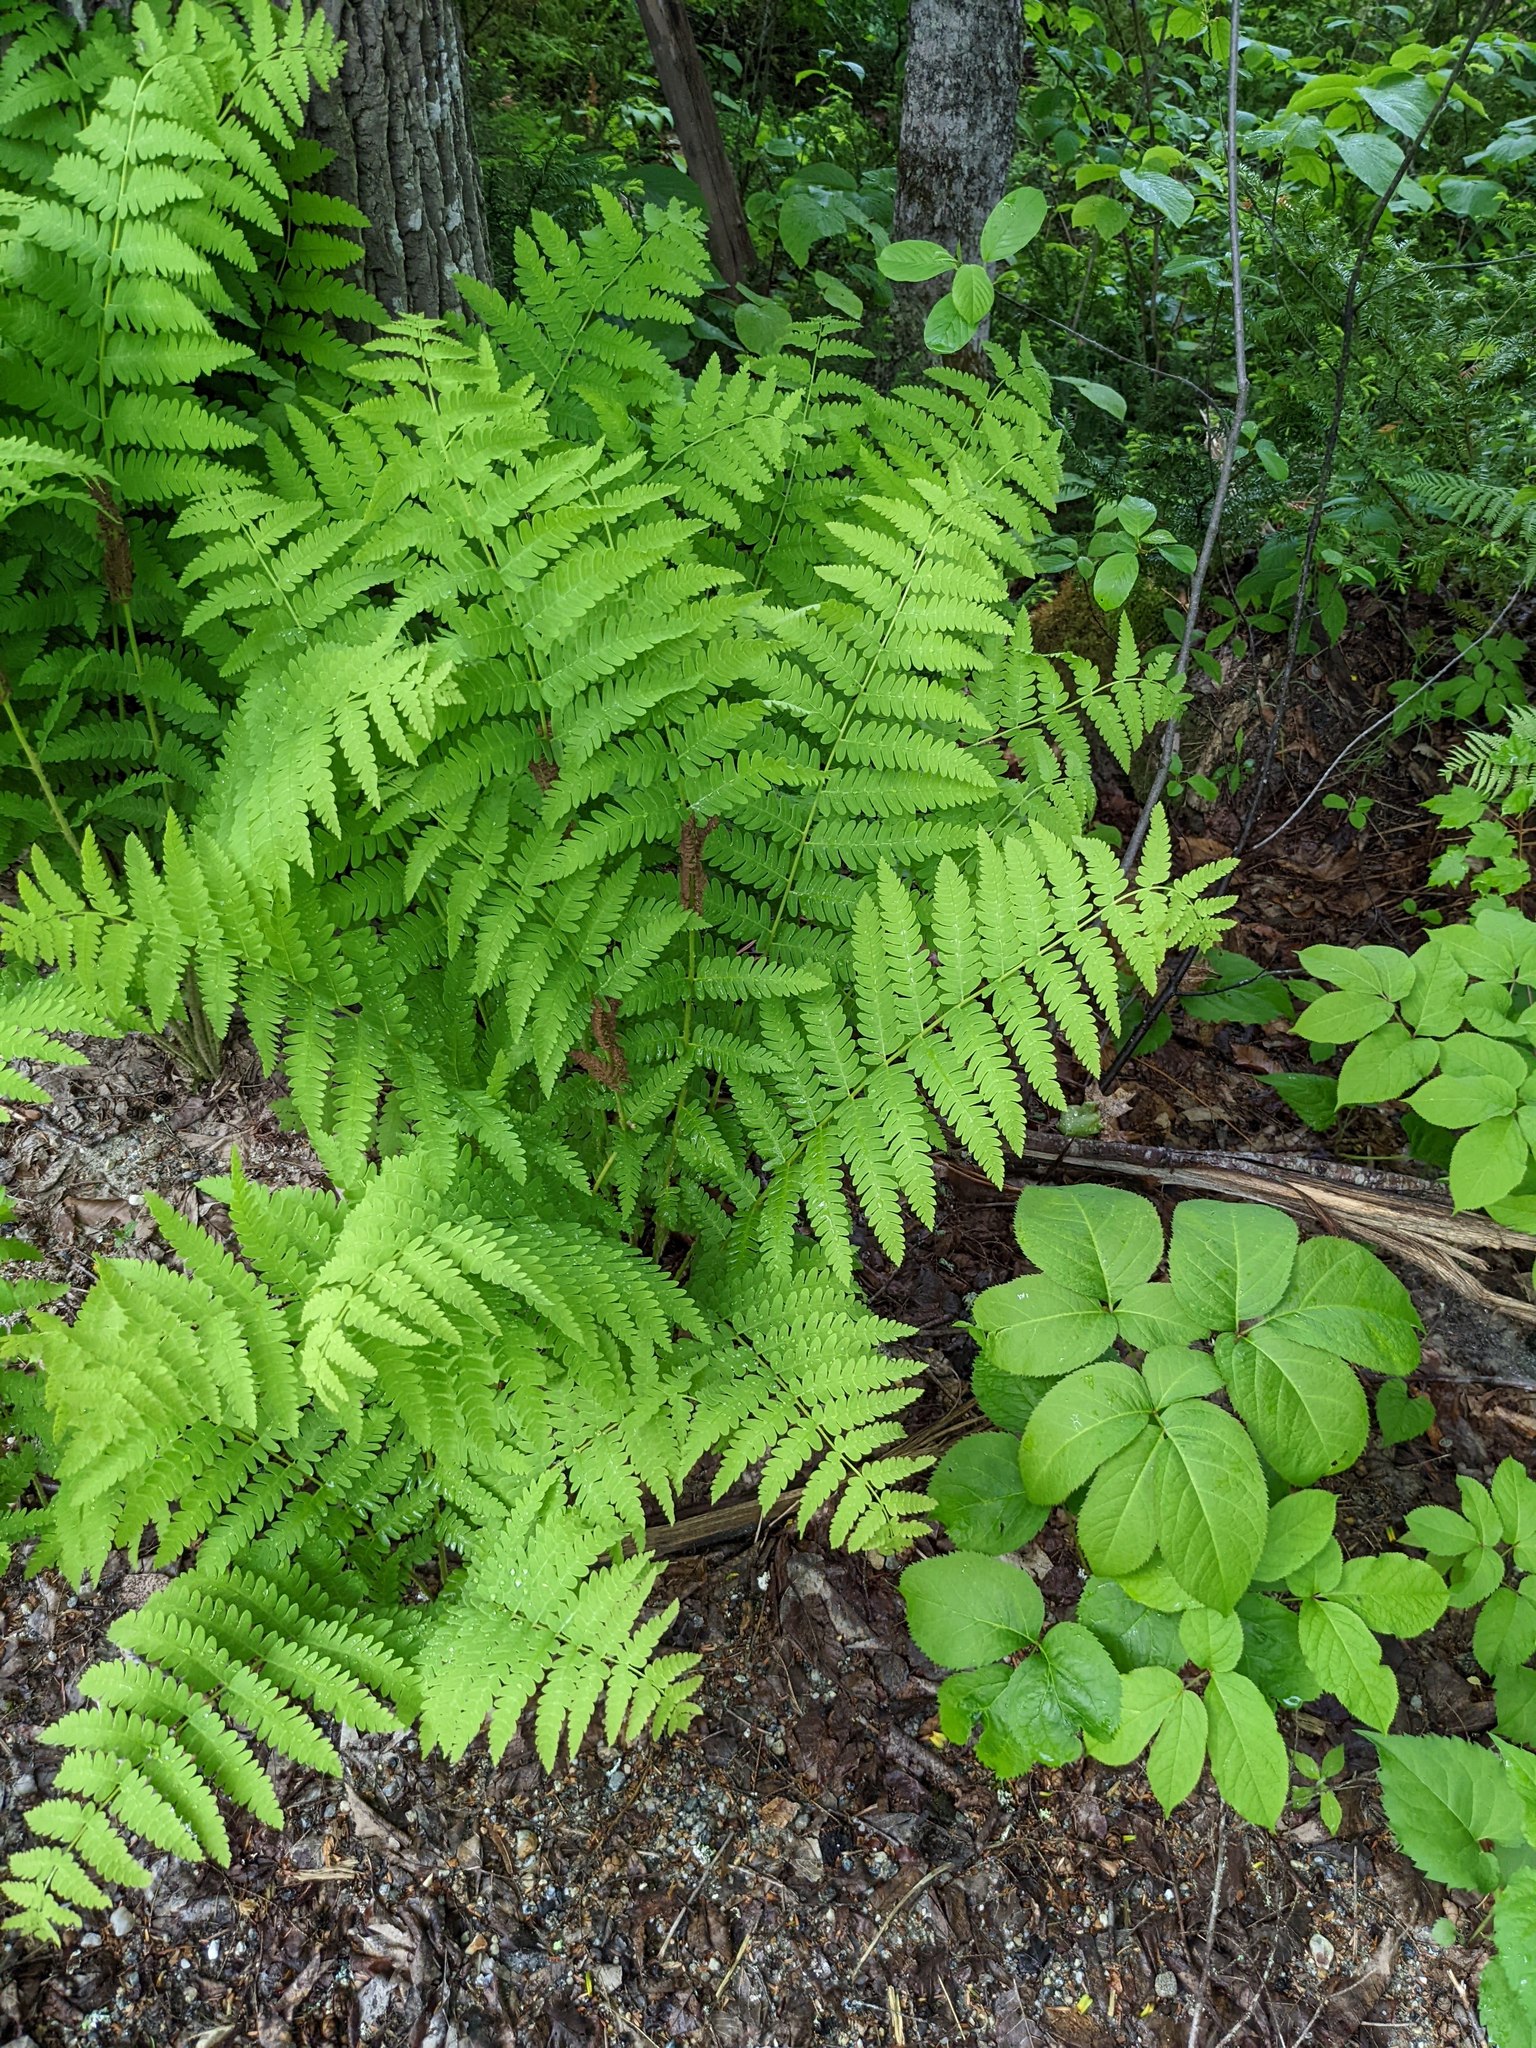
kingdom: Plantae
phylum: Tracheophyta
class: Polypodiopsida
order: Osmundales
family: Osmundaceae
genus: Claytosmunda
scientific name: Claytosmunda claytoniana
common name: Clayton's fern
